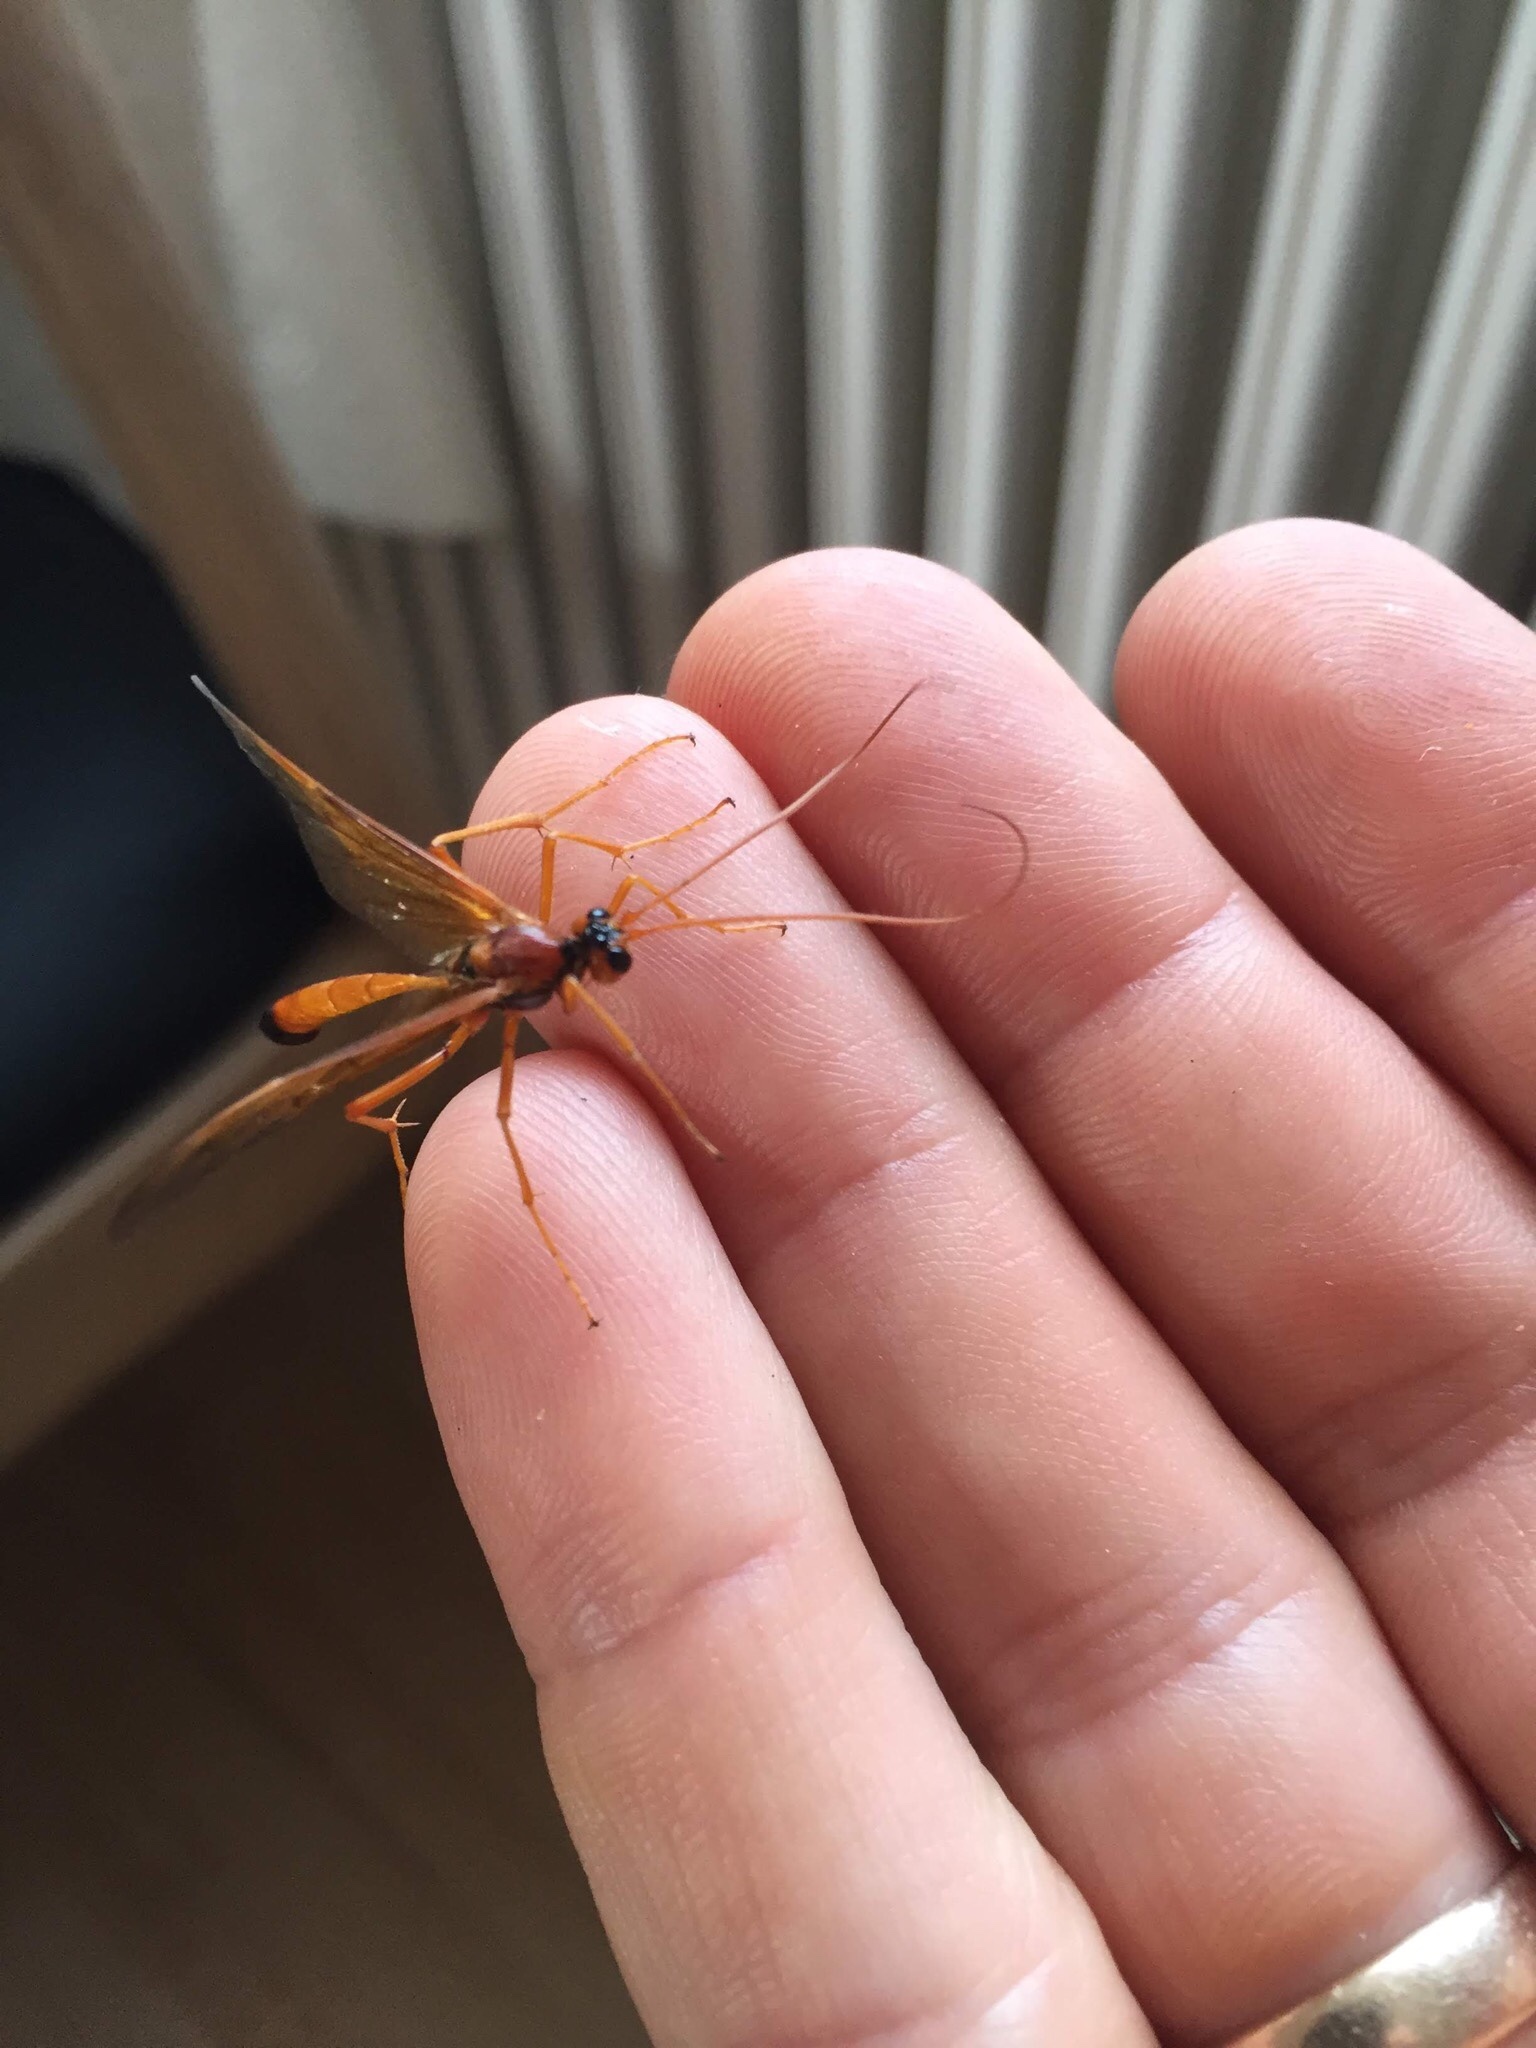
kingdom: Animalia
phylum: Arthropoda
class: Insecta
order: Hymenoptera
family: Ichneumonidae
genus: Opheltes
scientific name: Opheltes glaucopterus
